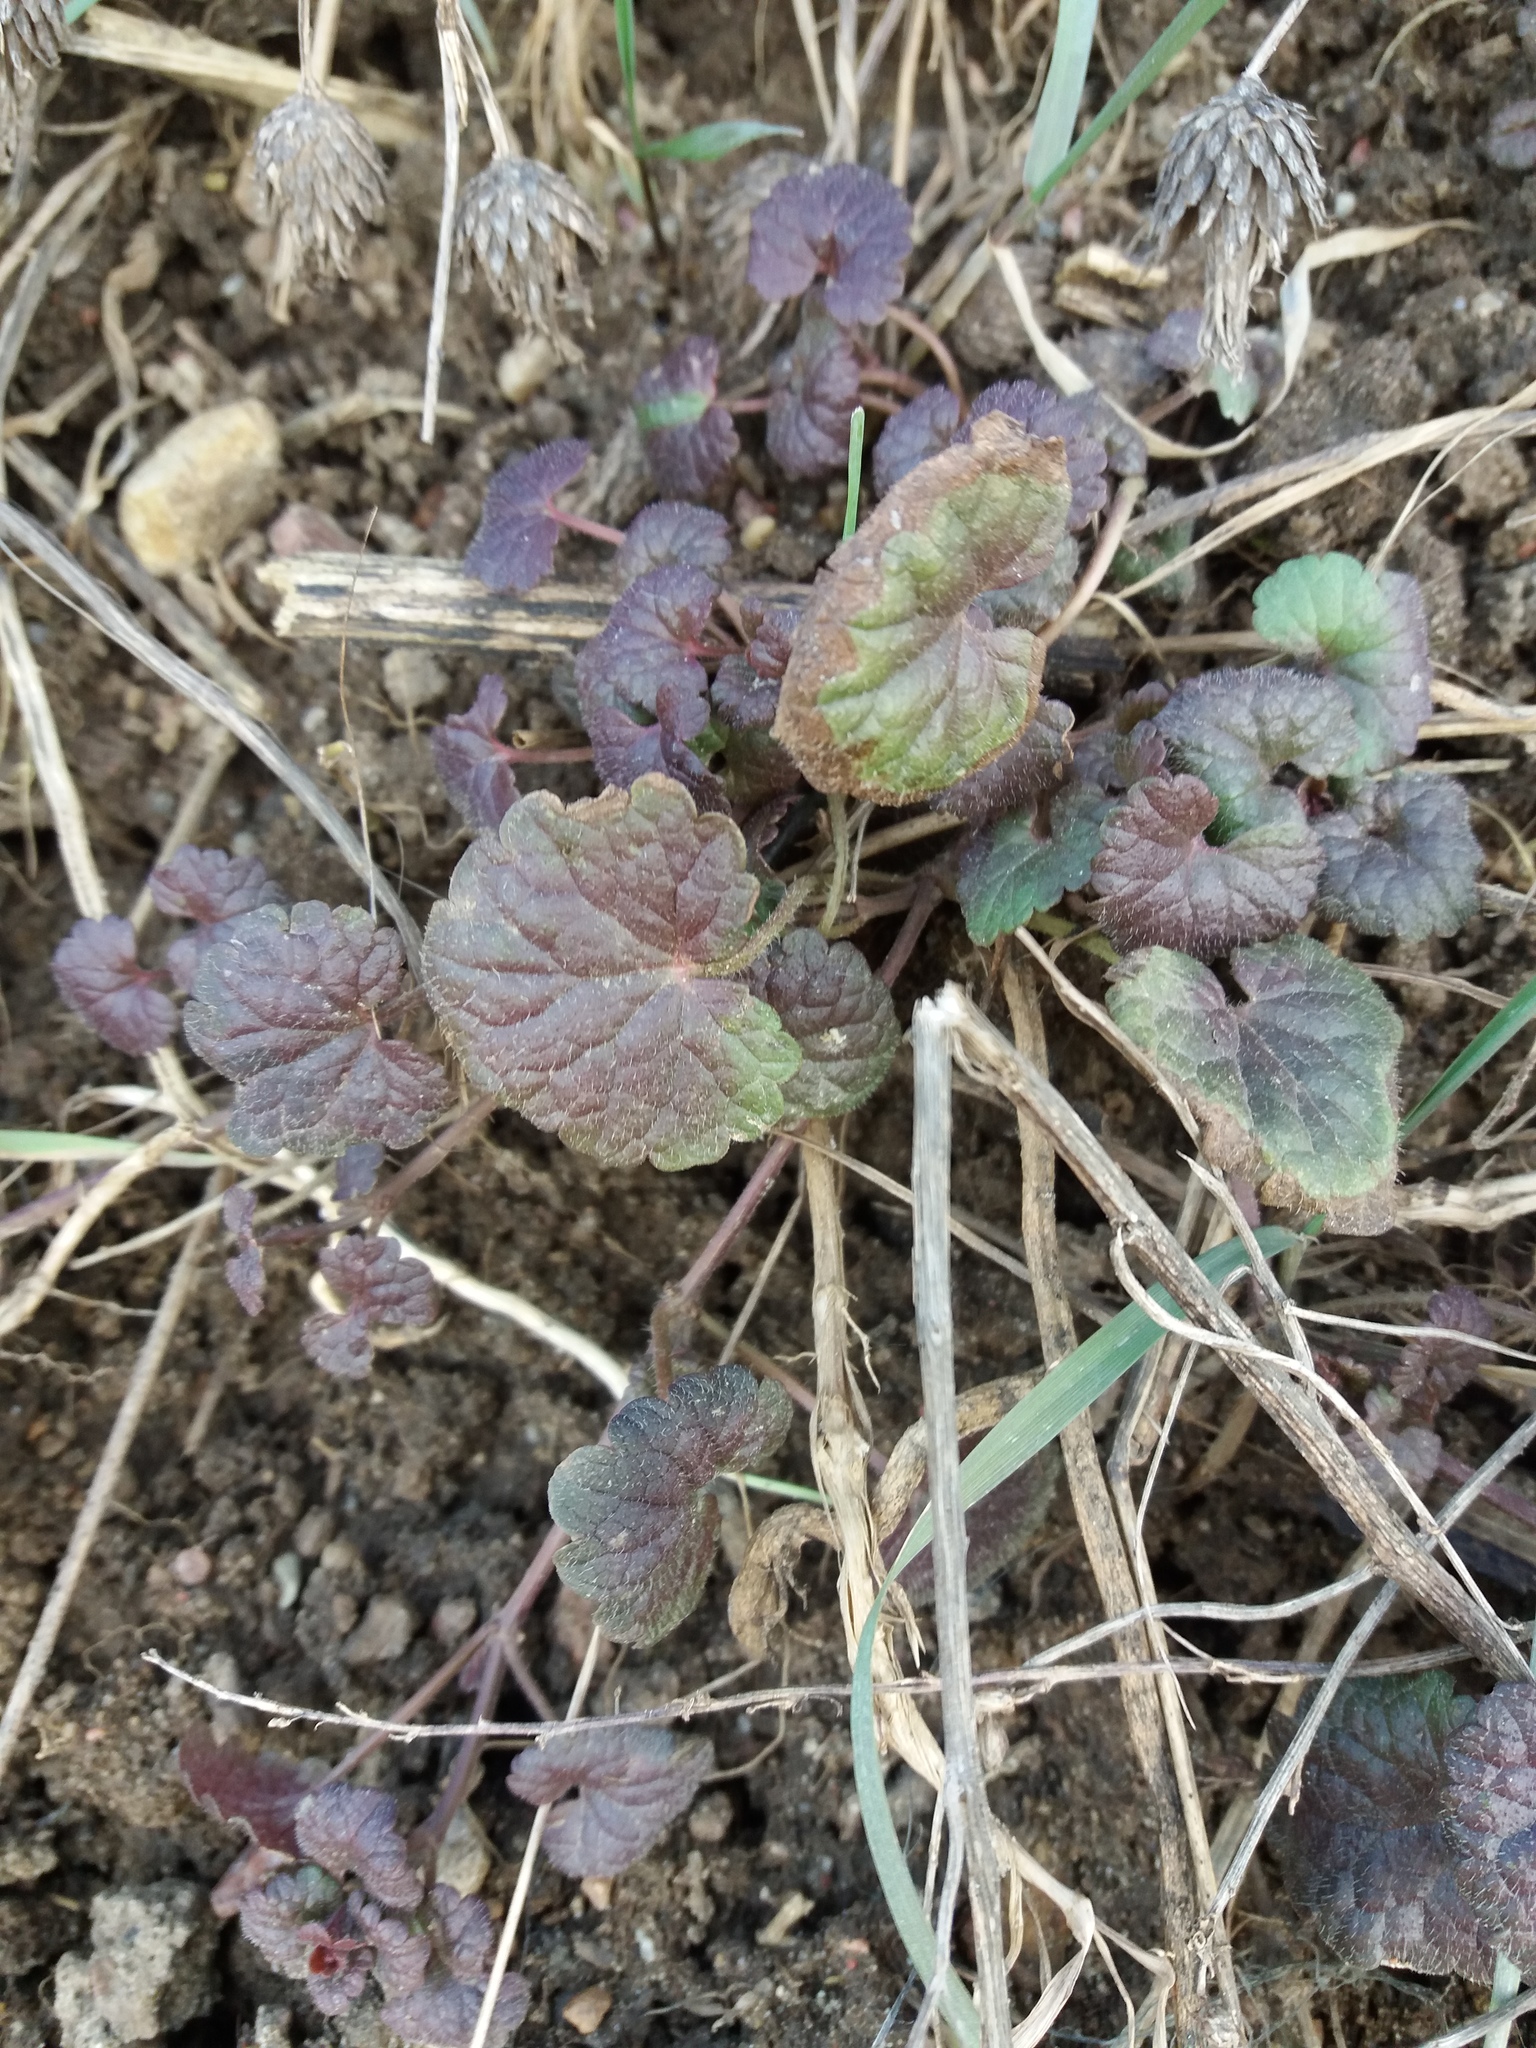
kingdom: Plantae
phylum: Tracheophyta
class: Magnoliopsida
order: Lamiales
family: Lamiaceae
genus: Glechoma
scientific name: Glechoma hederacea
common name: Ground ivy
